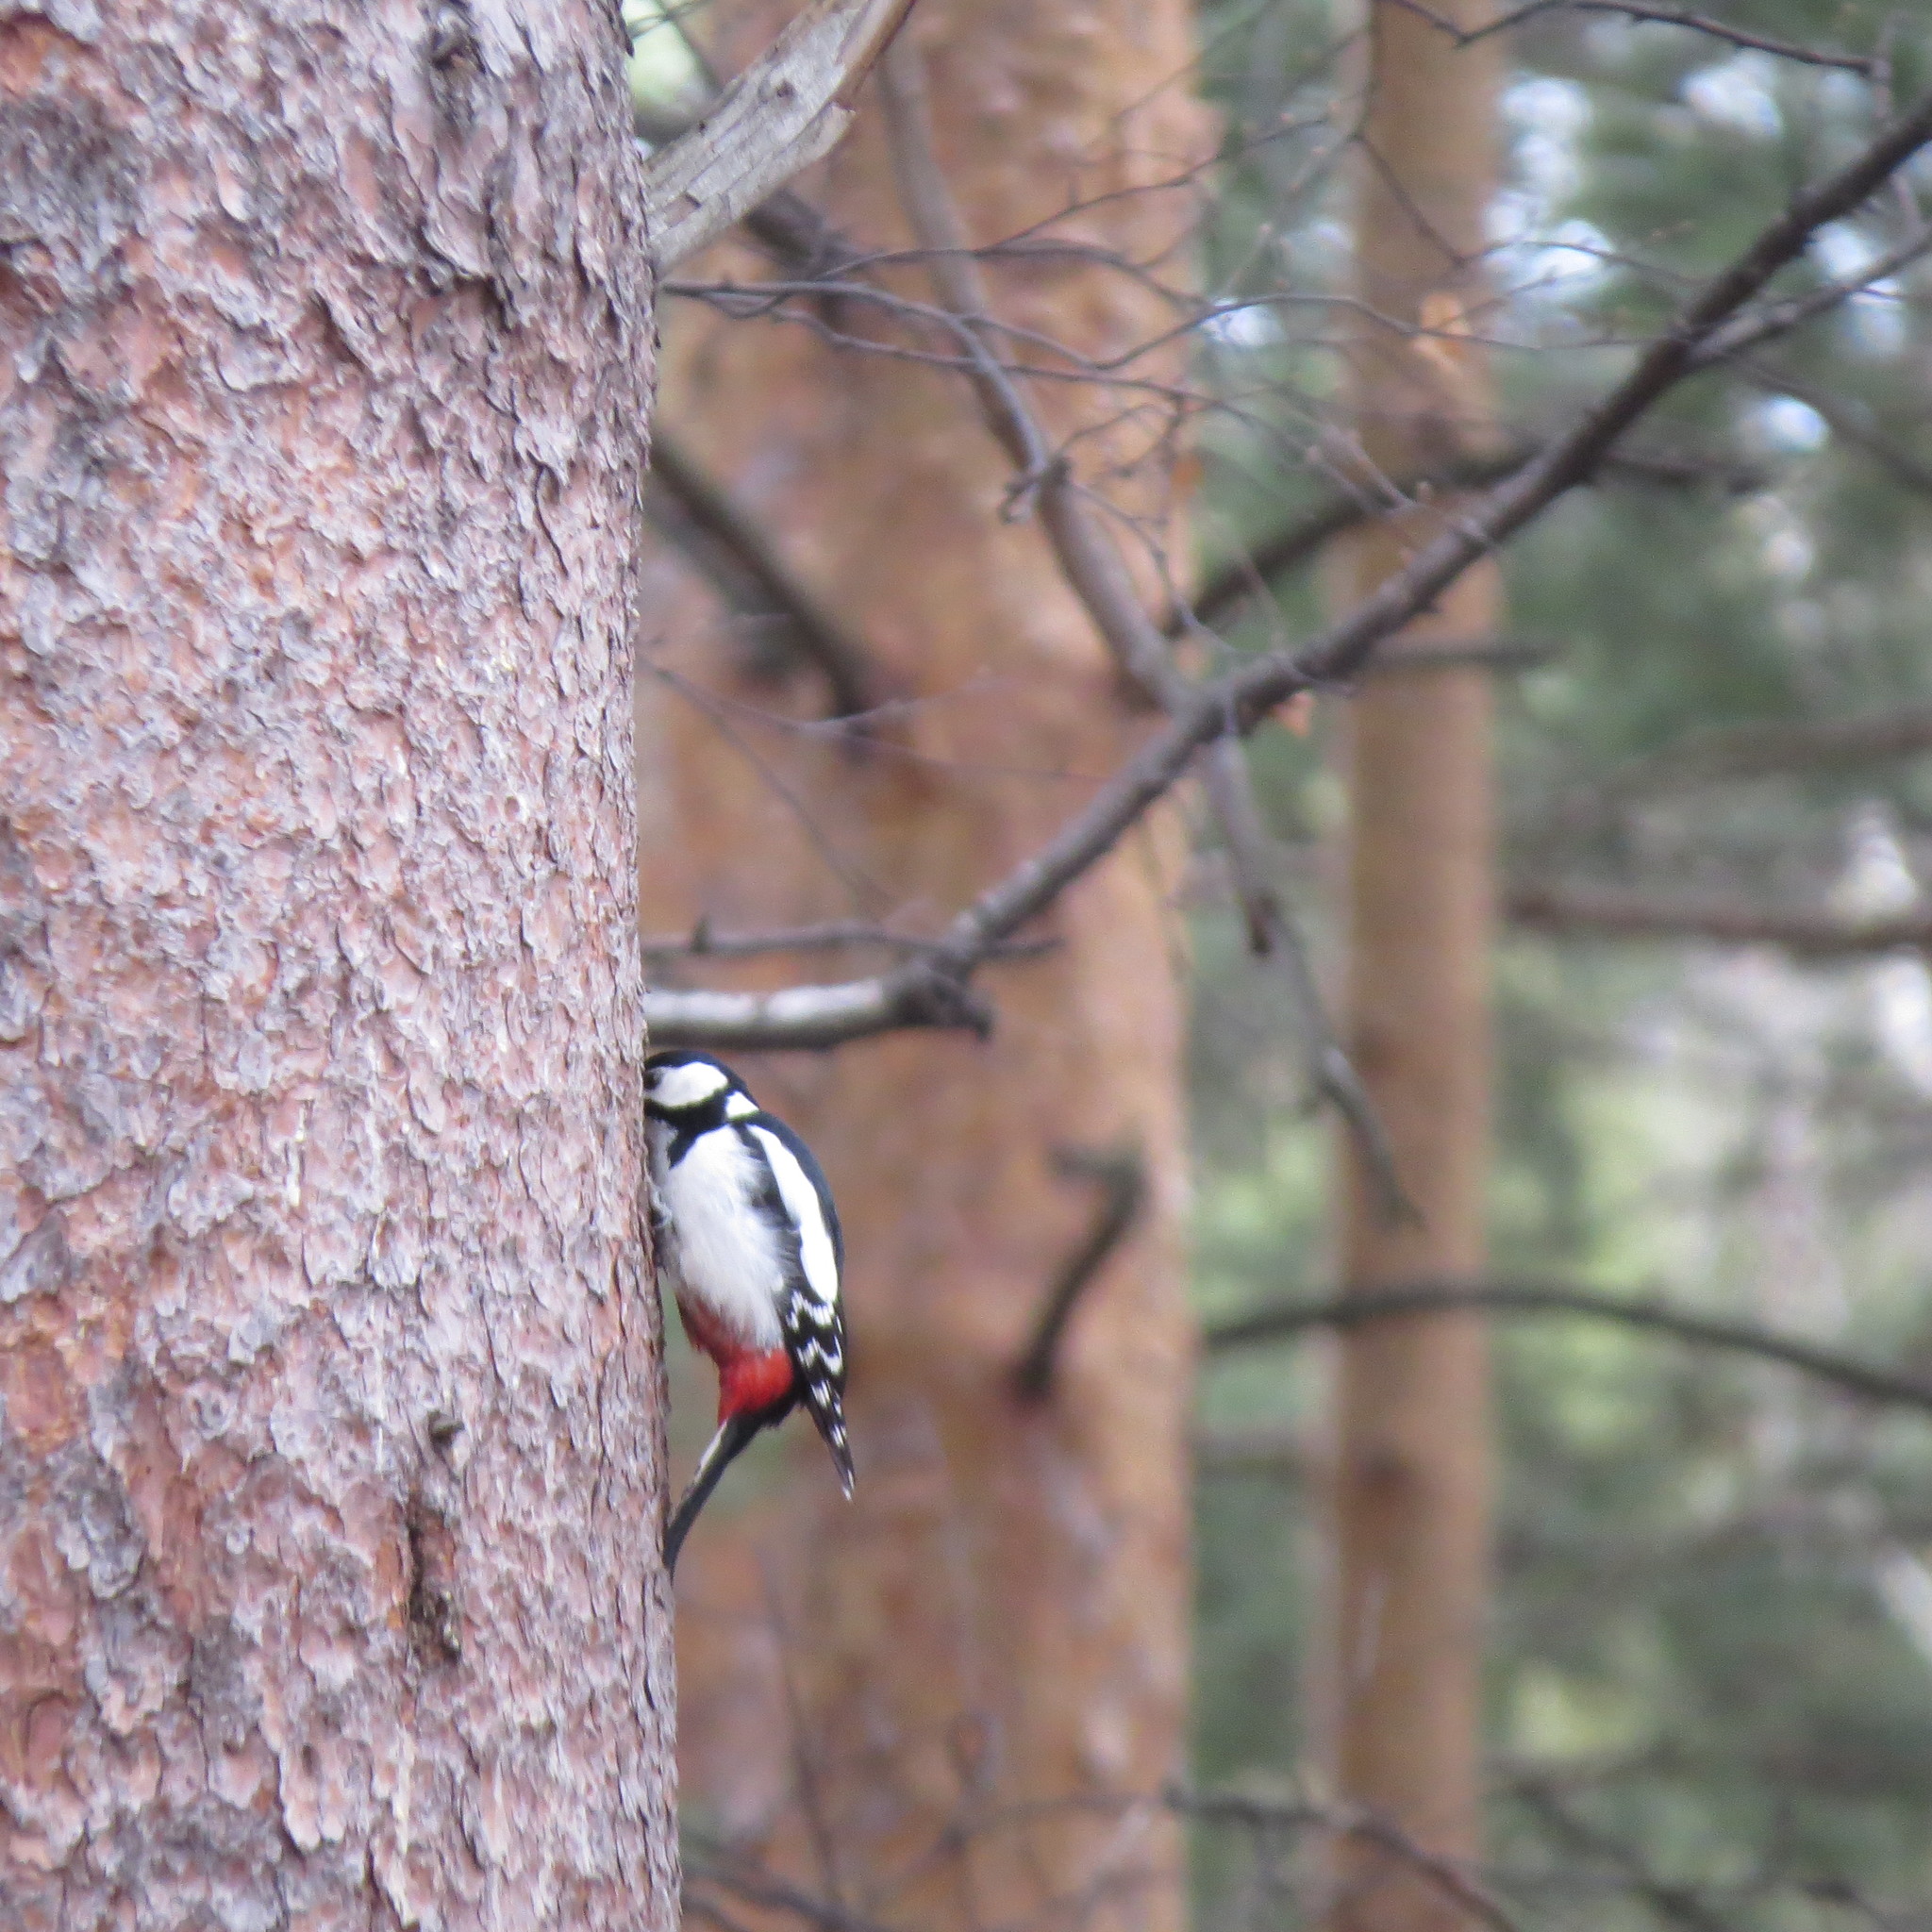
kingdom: Animalia
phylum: Chordata
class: Aves
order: Piciformes
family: Picidae
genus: Dendrocopos
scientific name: Dendrocopos major
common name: Great spotted woodpecker
